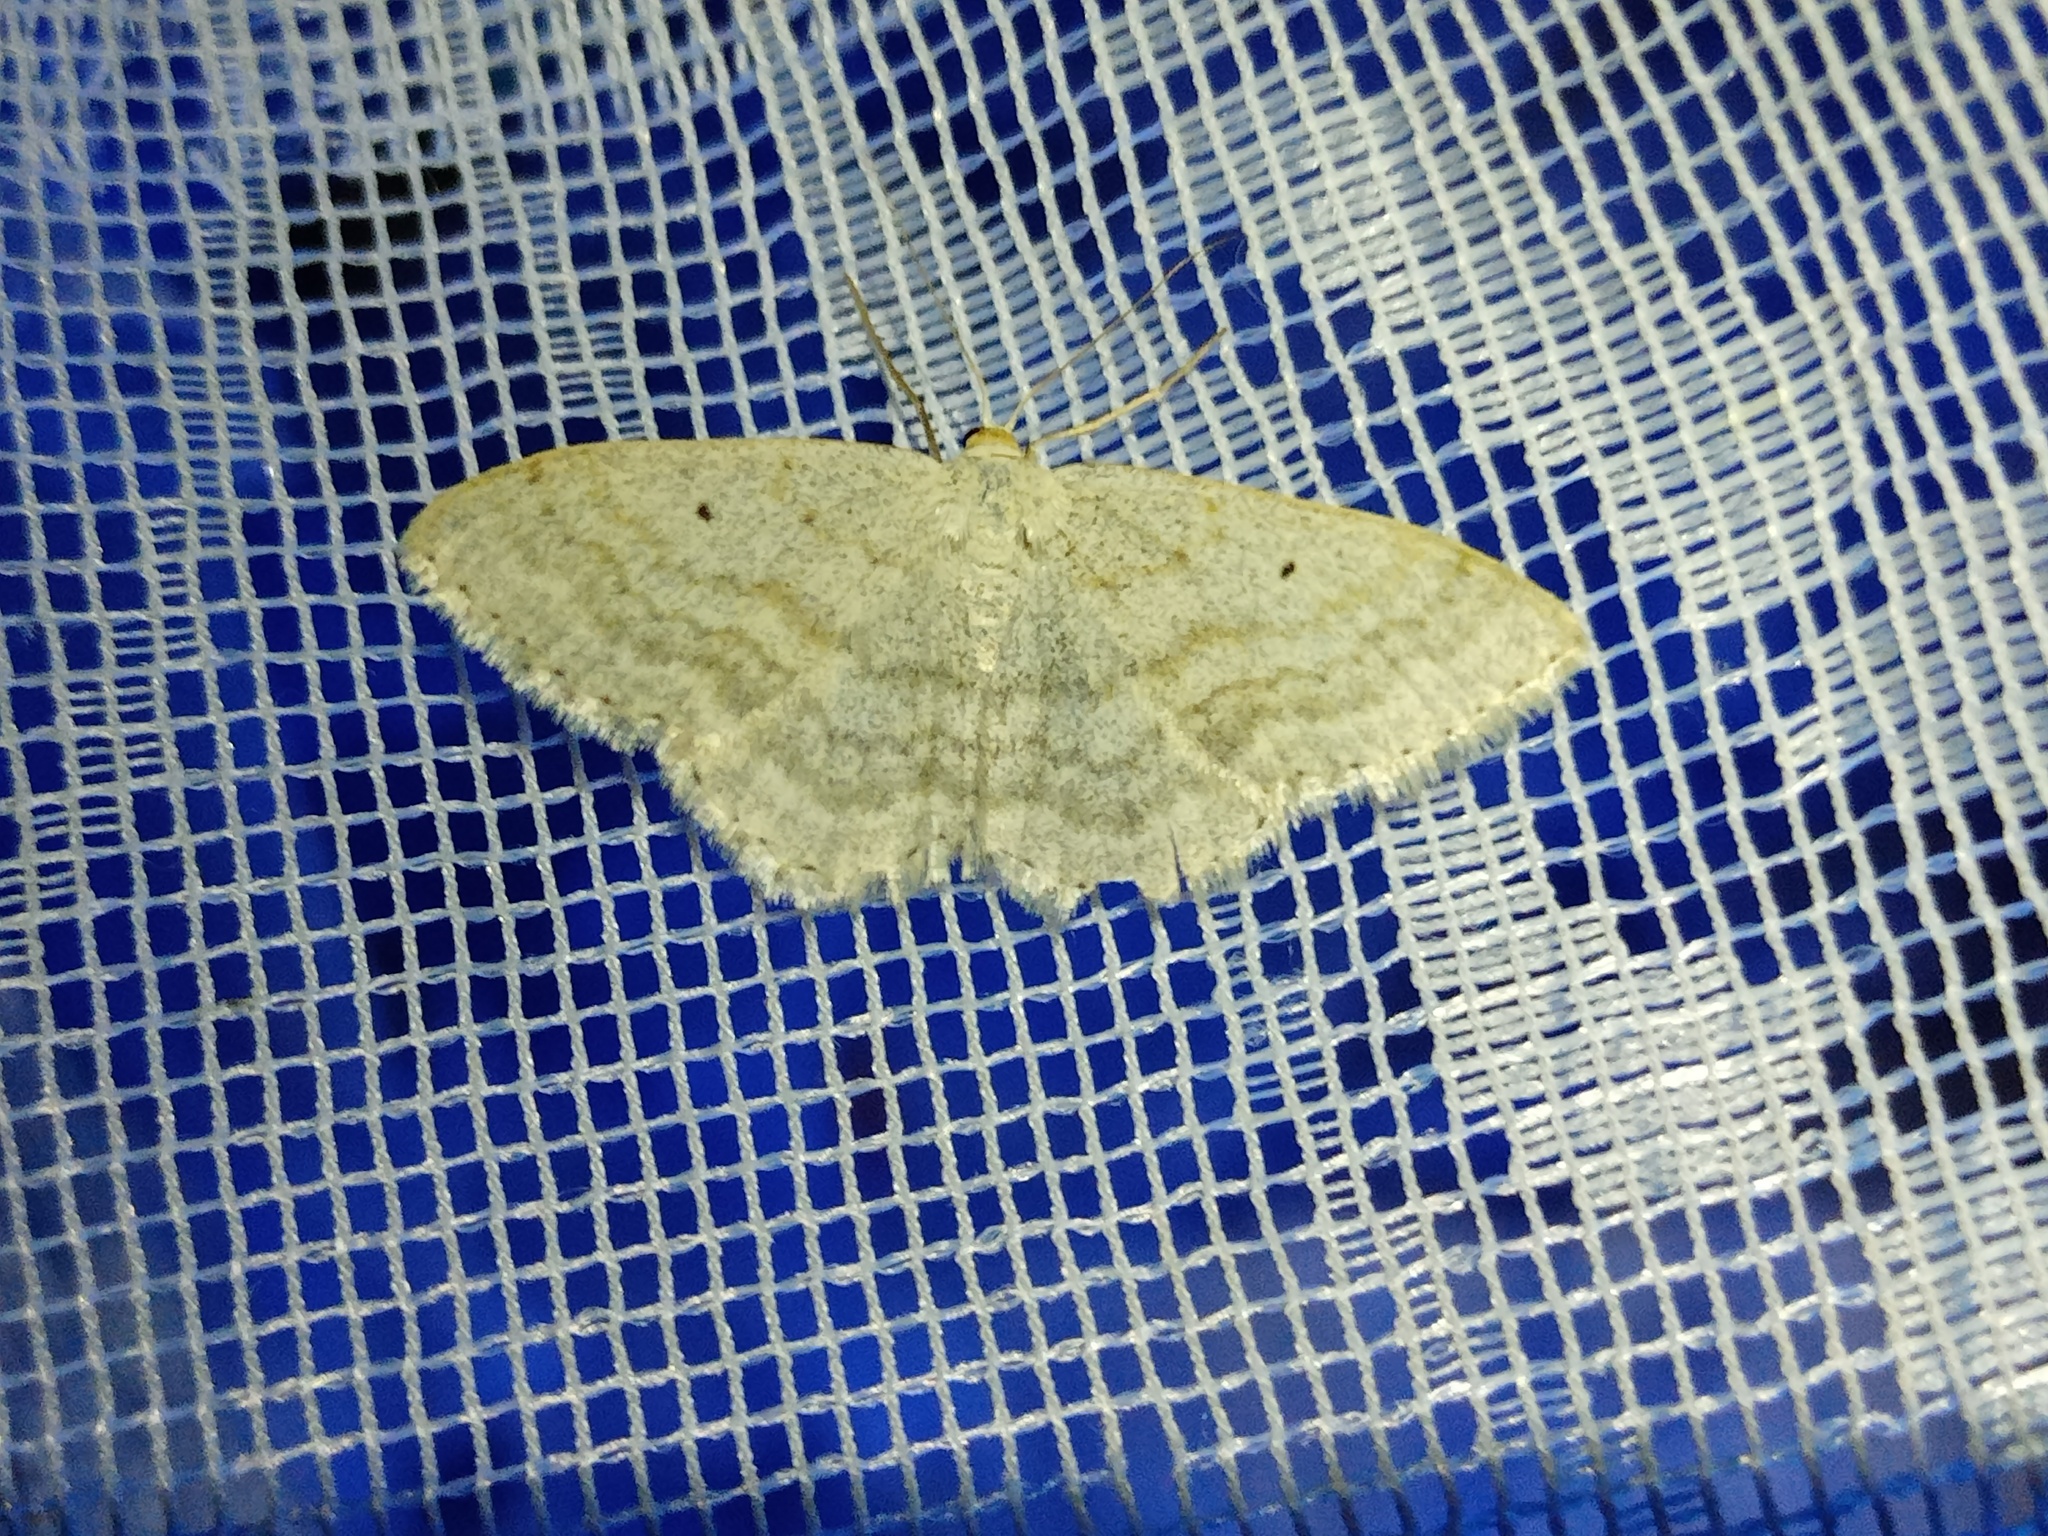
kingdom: Animalia
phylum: Arthropoda
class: Insecta
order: Lepidoptera
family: Geometridae
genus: Scopula
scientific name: Scopula incanata
